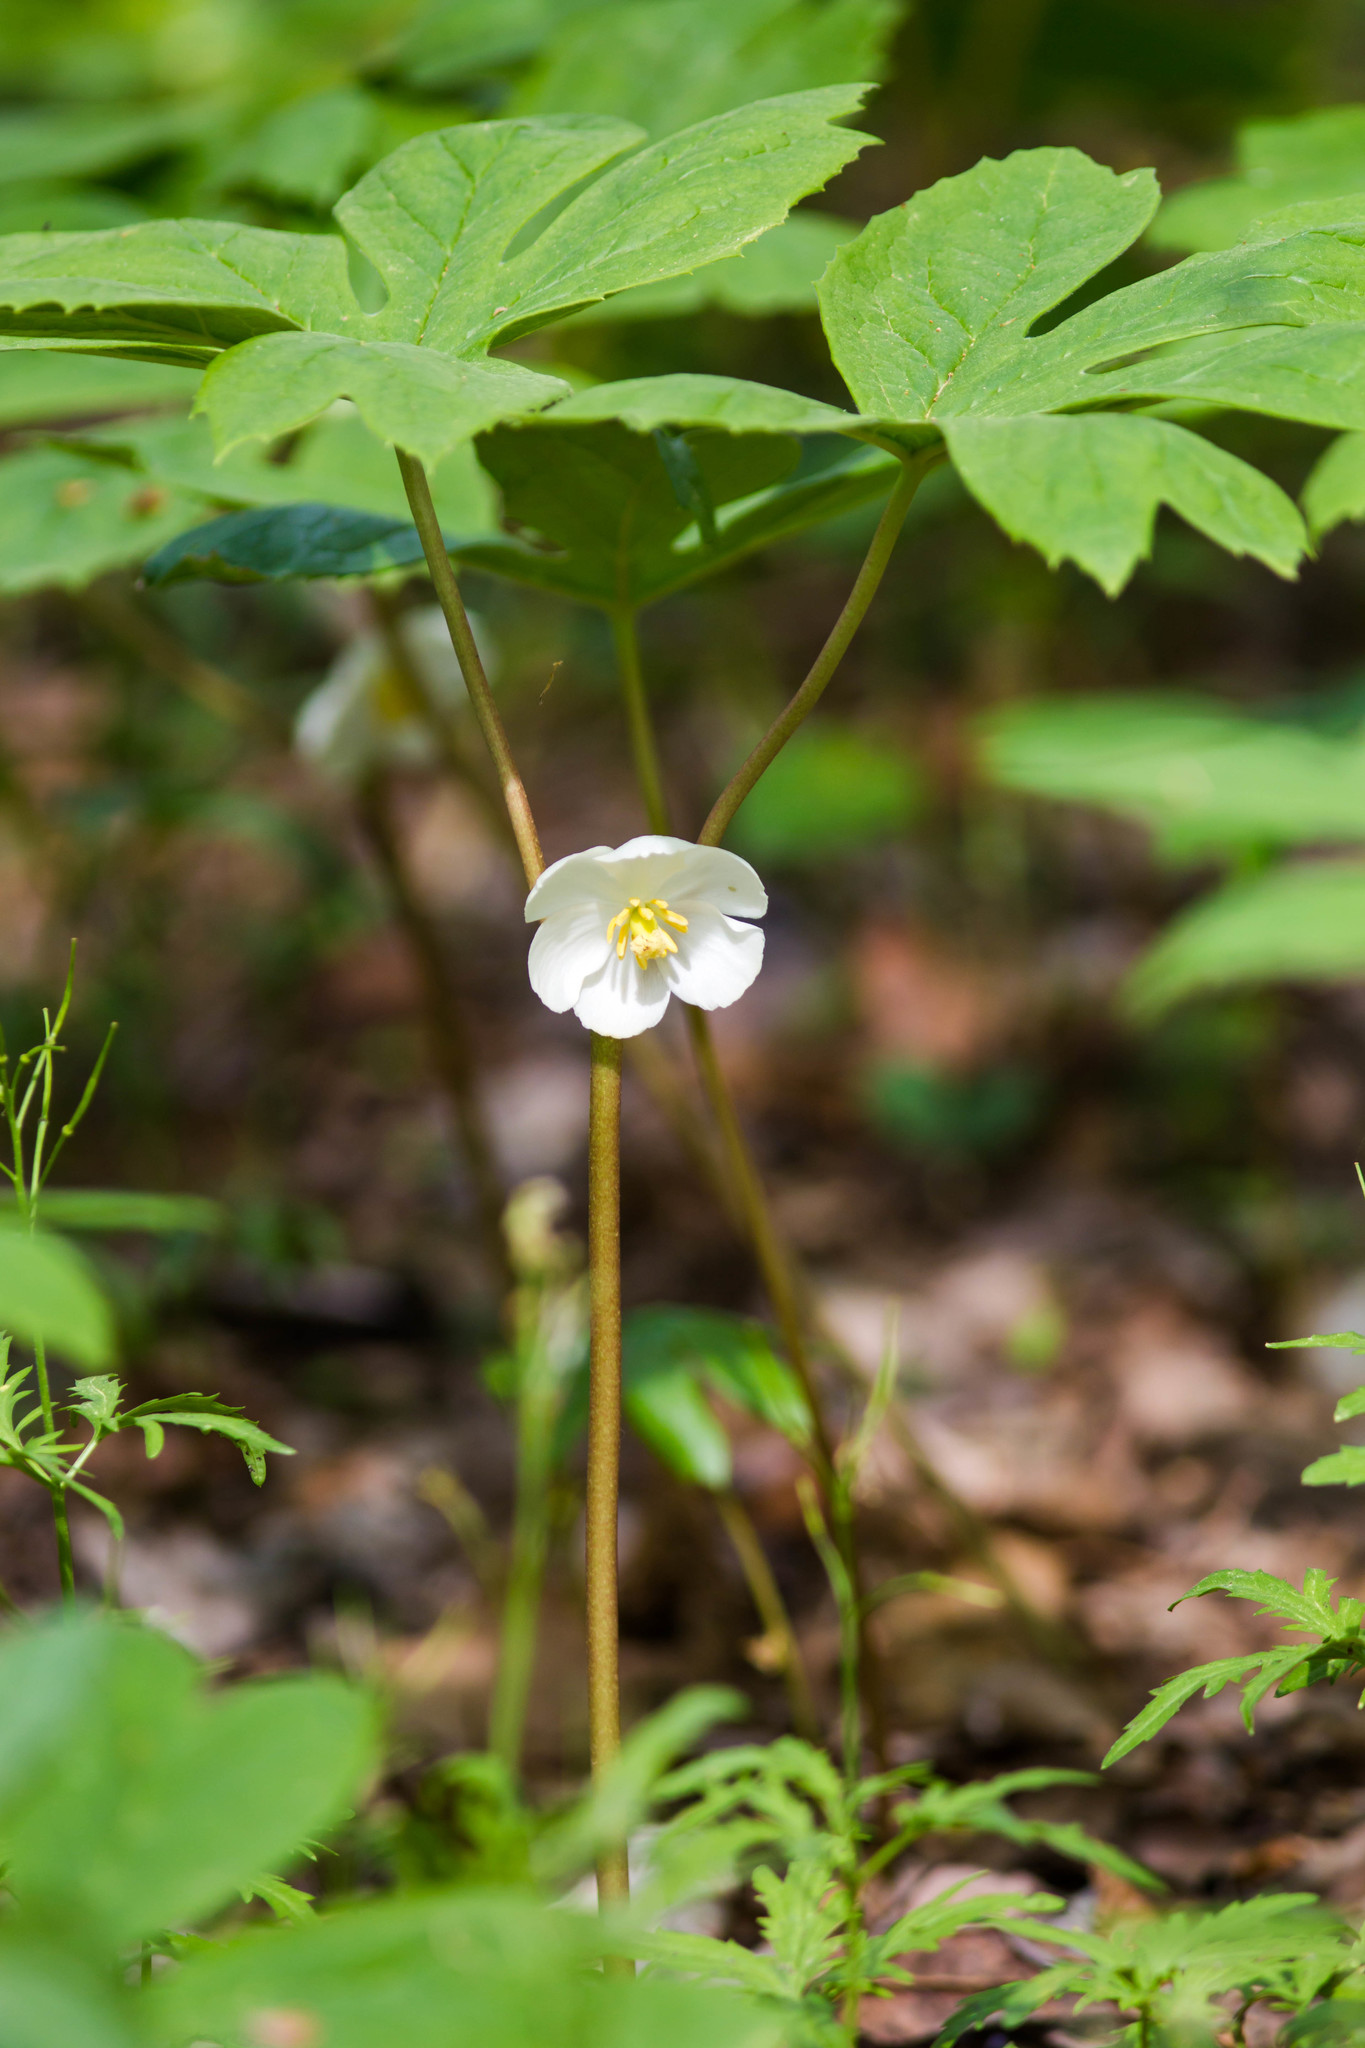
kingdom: Plantae
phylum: Tracheophyta
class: Magnoliopsida
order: Ranunculales
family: Berberidaceae
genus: Podophyllum
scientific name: Podophyllum peltatum
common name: Wild mandrake
